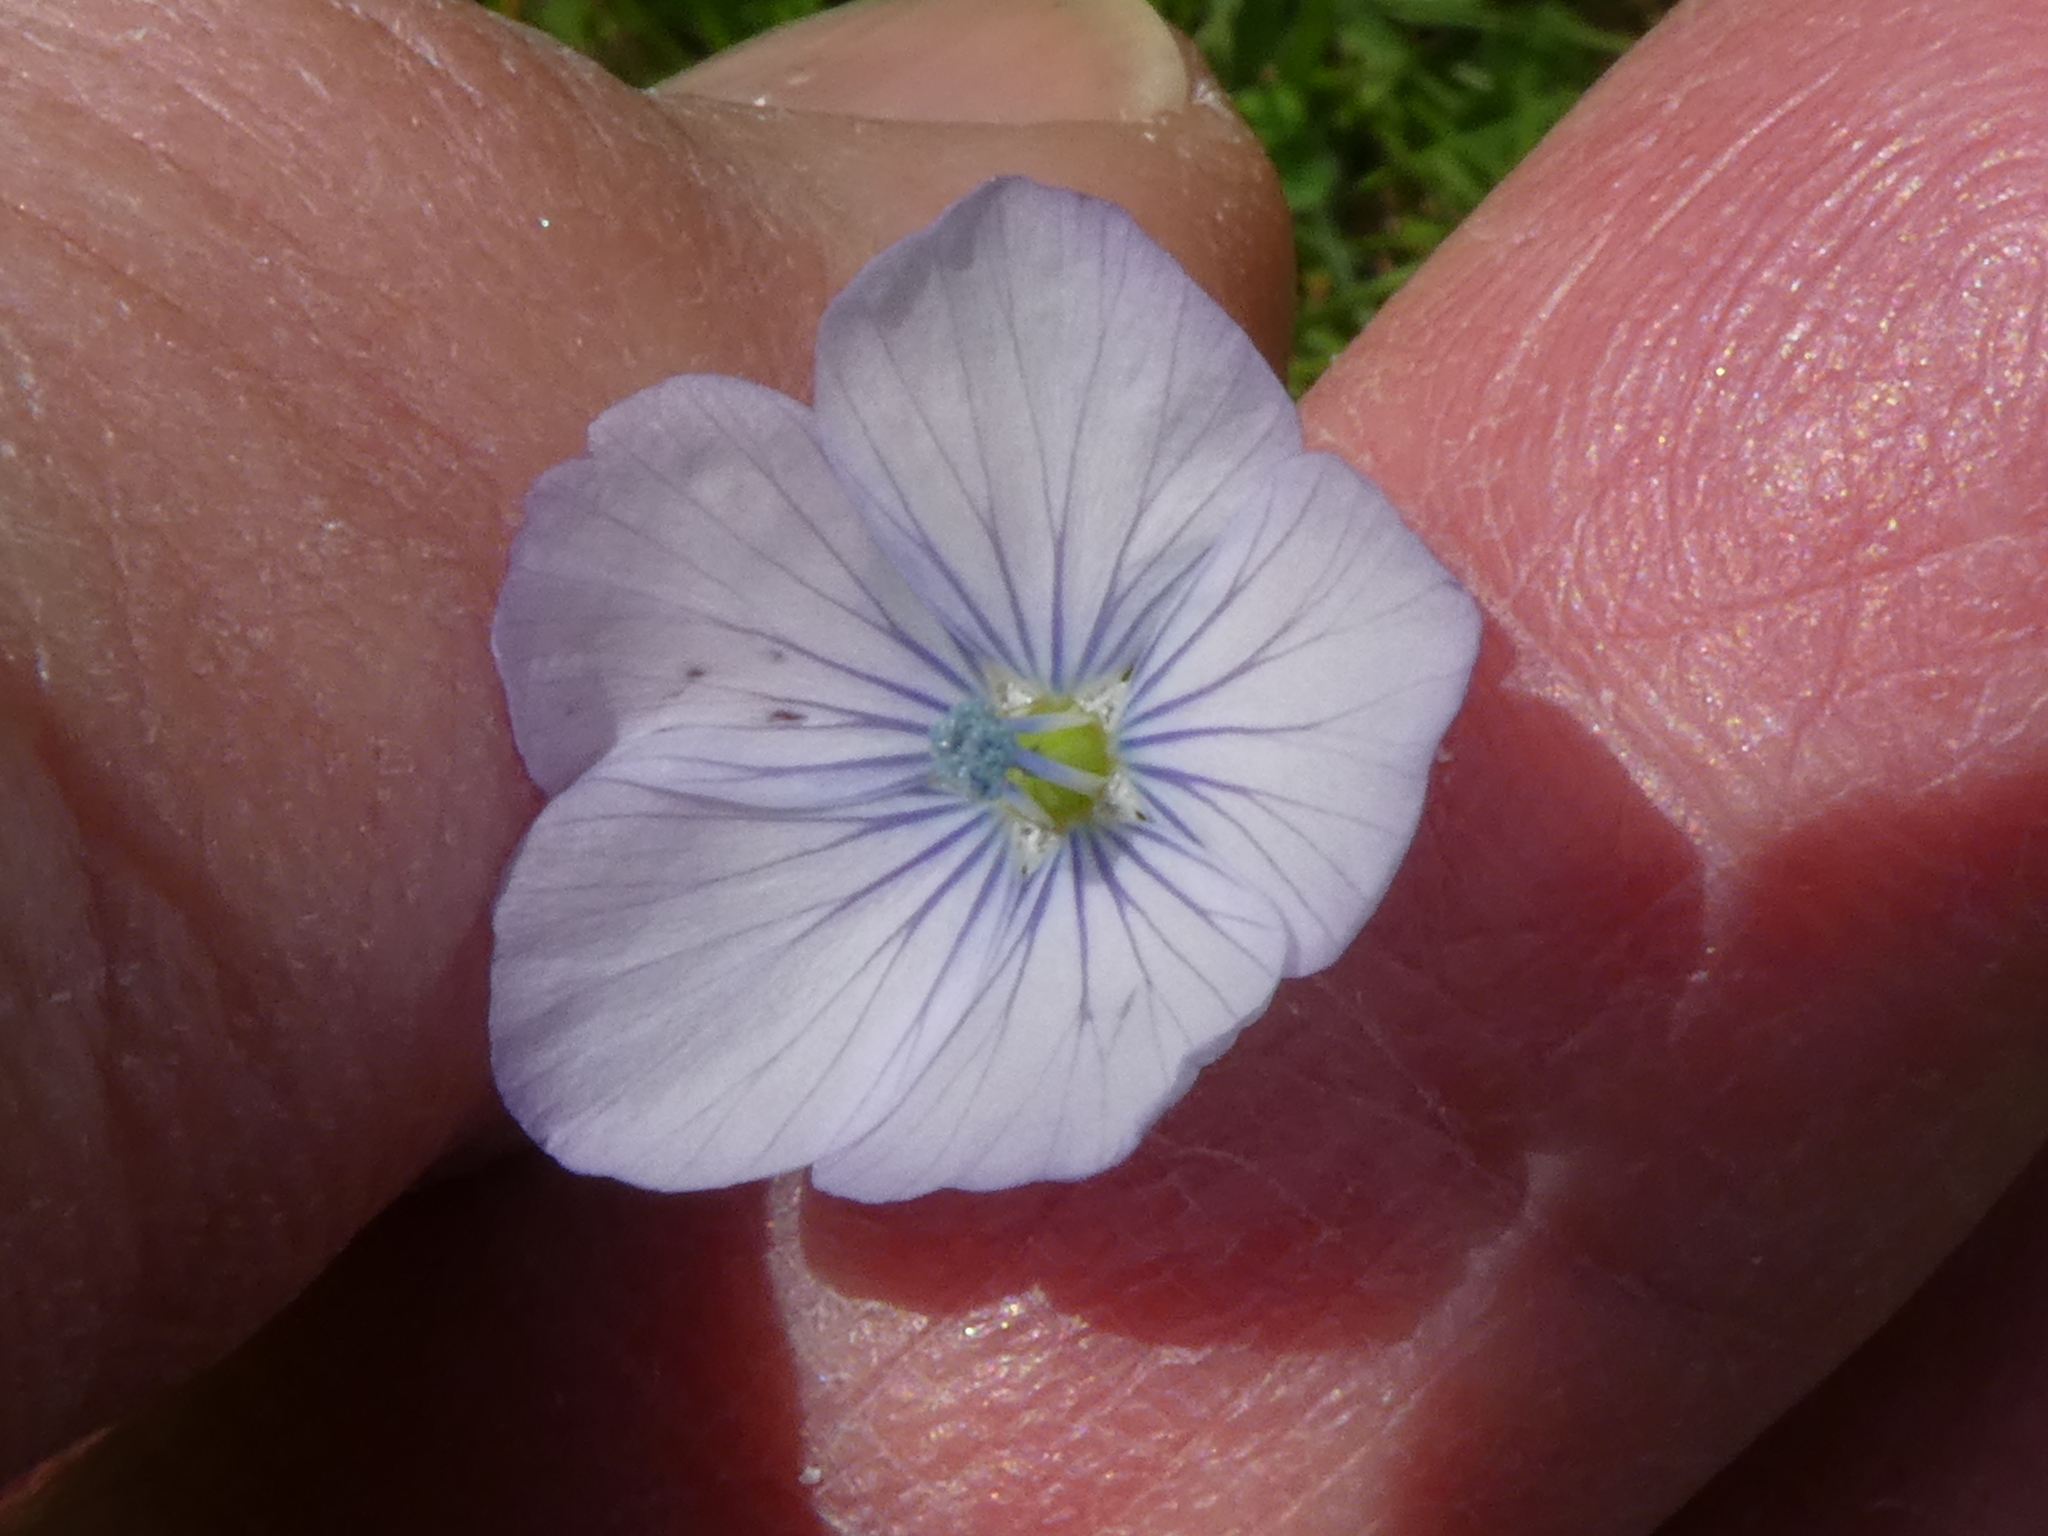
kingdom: Plantae
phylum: Tracheophyta
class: Magnoliopsida
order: Malpighiales
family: Linaceae
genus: Linum
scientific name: Linum bienne
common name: Pale flax
